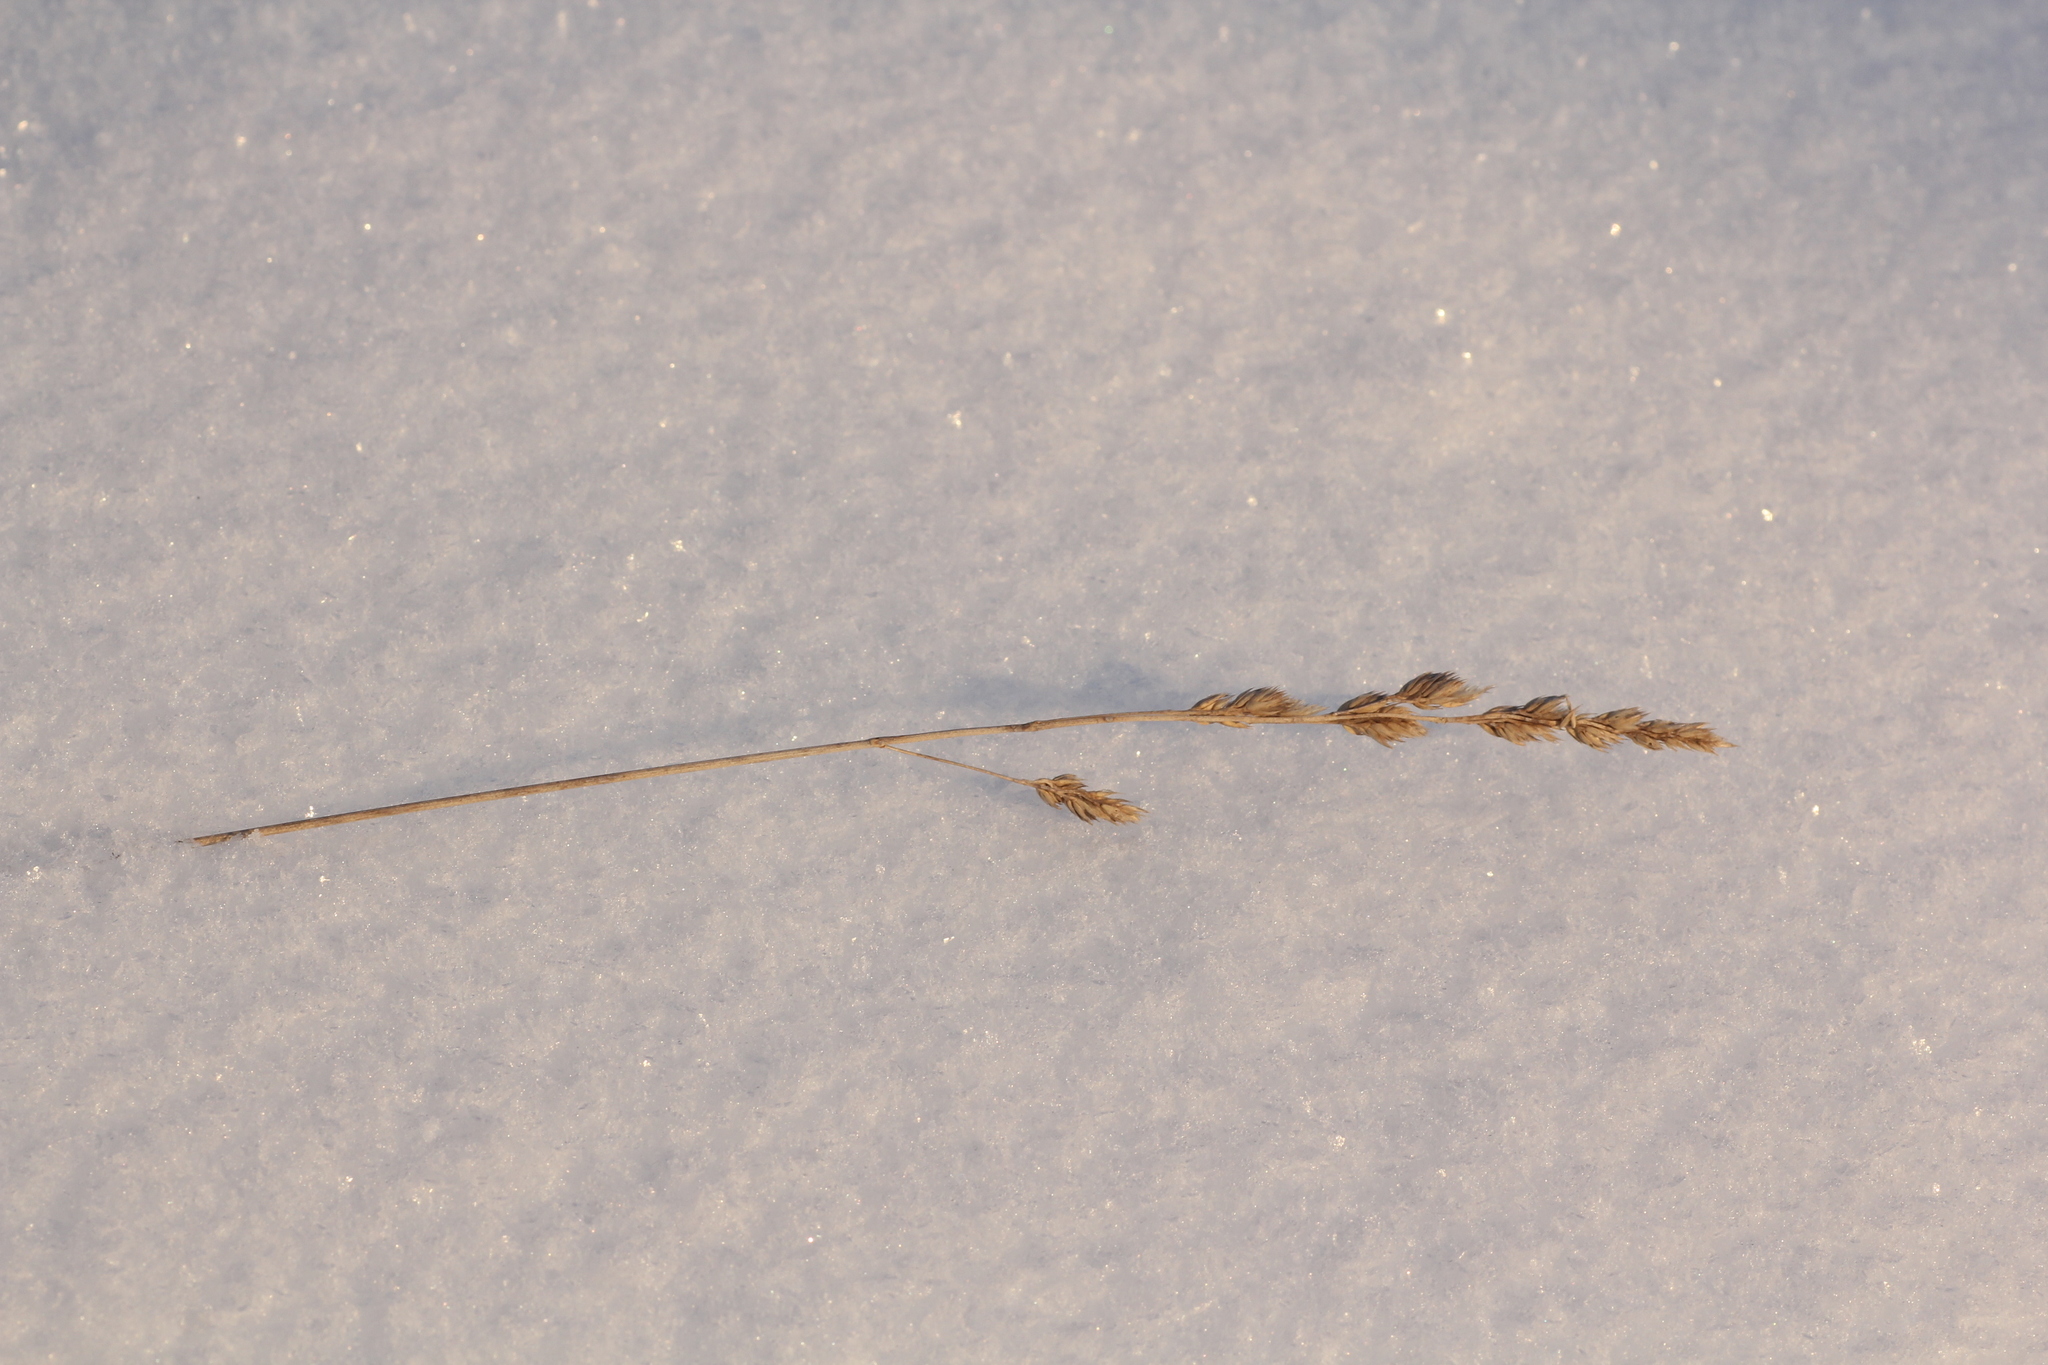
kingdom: Plantae
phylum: Tracheophyta
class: Liliopsida
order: Poales
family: Poaceae
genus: Dactylis
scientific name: Dactylis glomerata
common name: Orchardgrass
